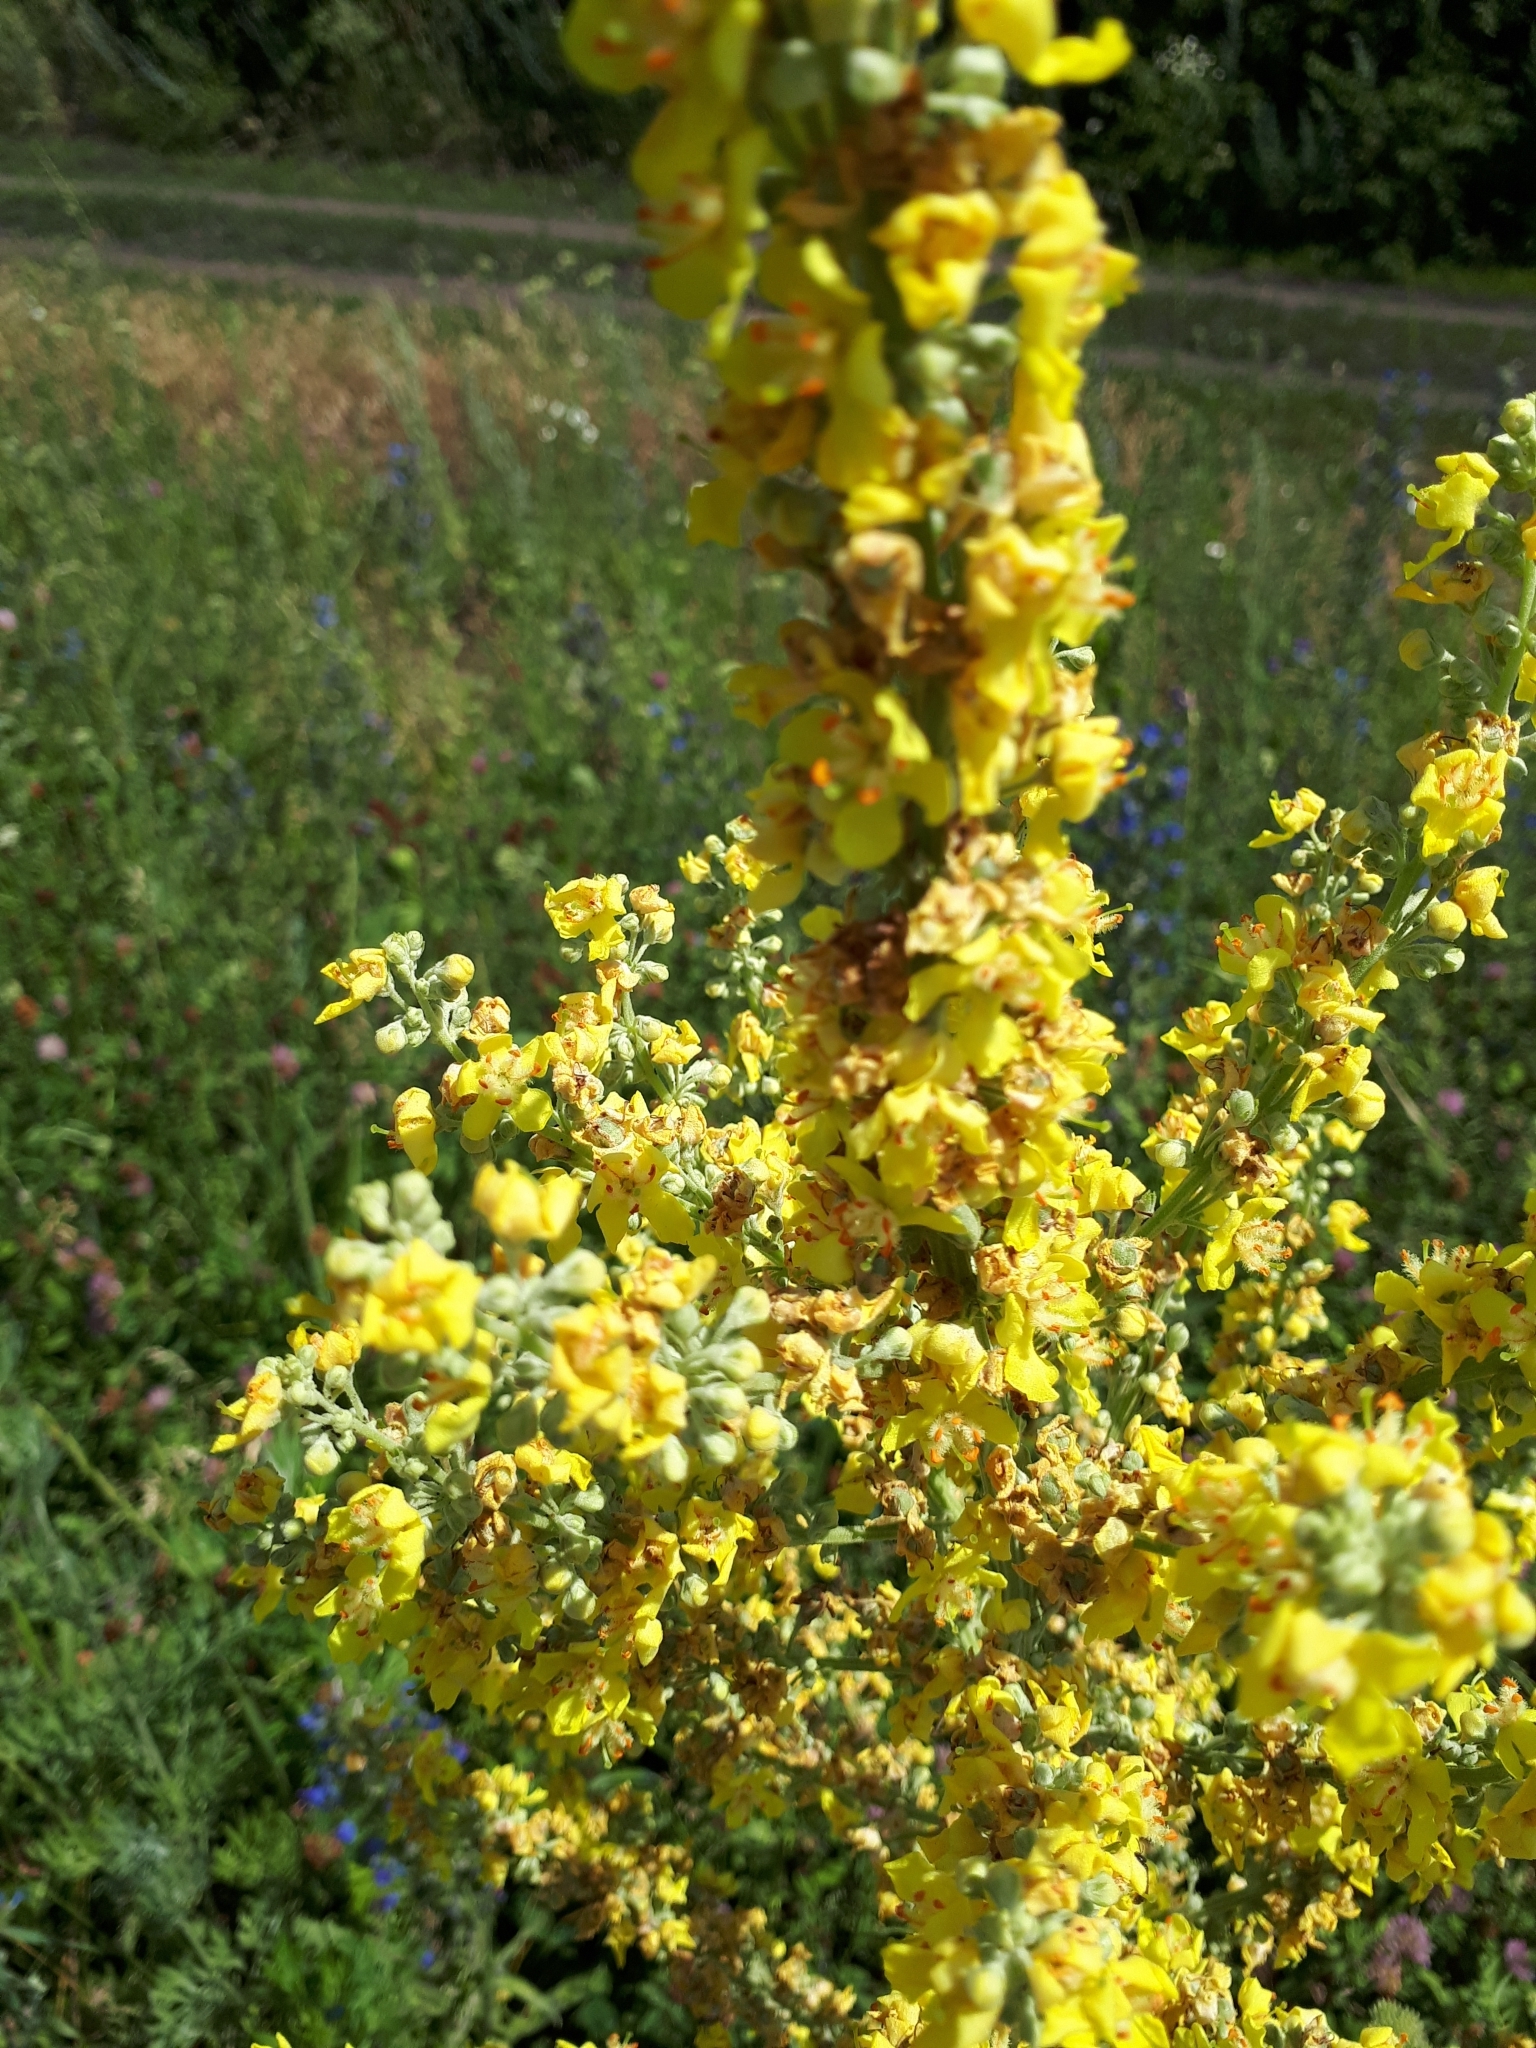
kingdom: Plantae
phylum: Tracheophyta
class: Magnoliopsida
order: Lamiales
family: Scrophulariaceae
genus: Verbascum
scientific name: Verbascum lychnitis
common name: White mullein
